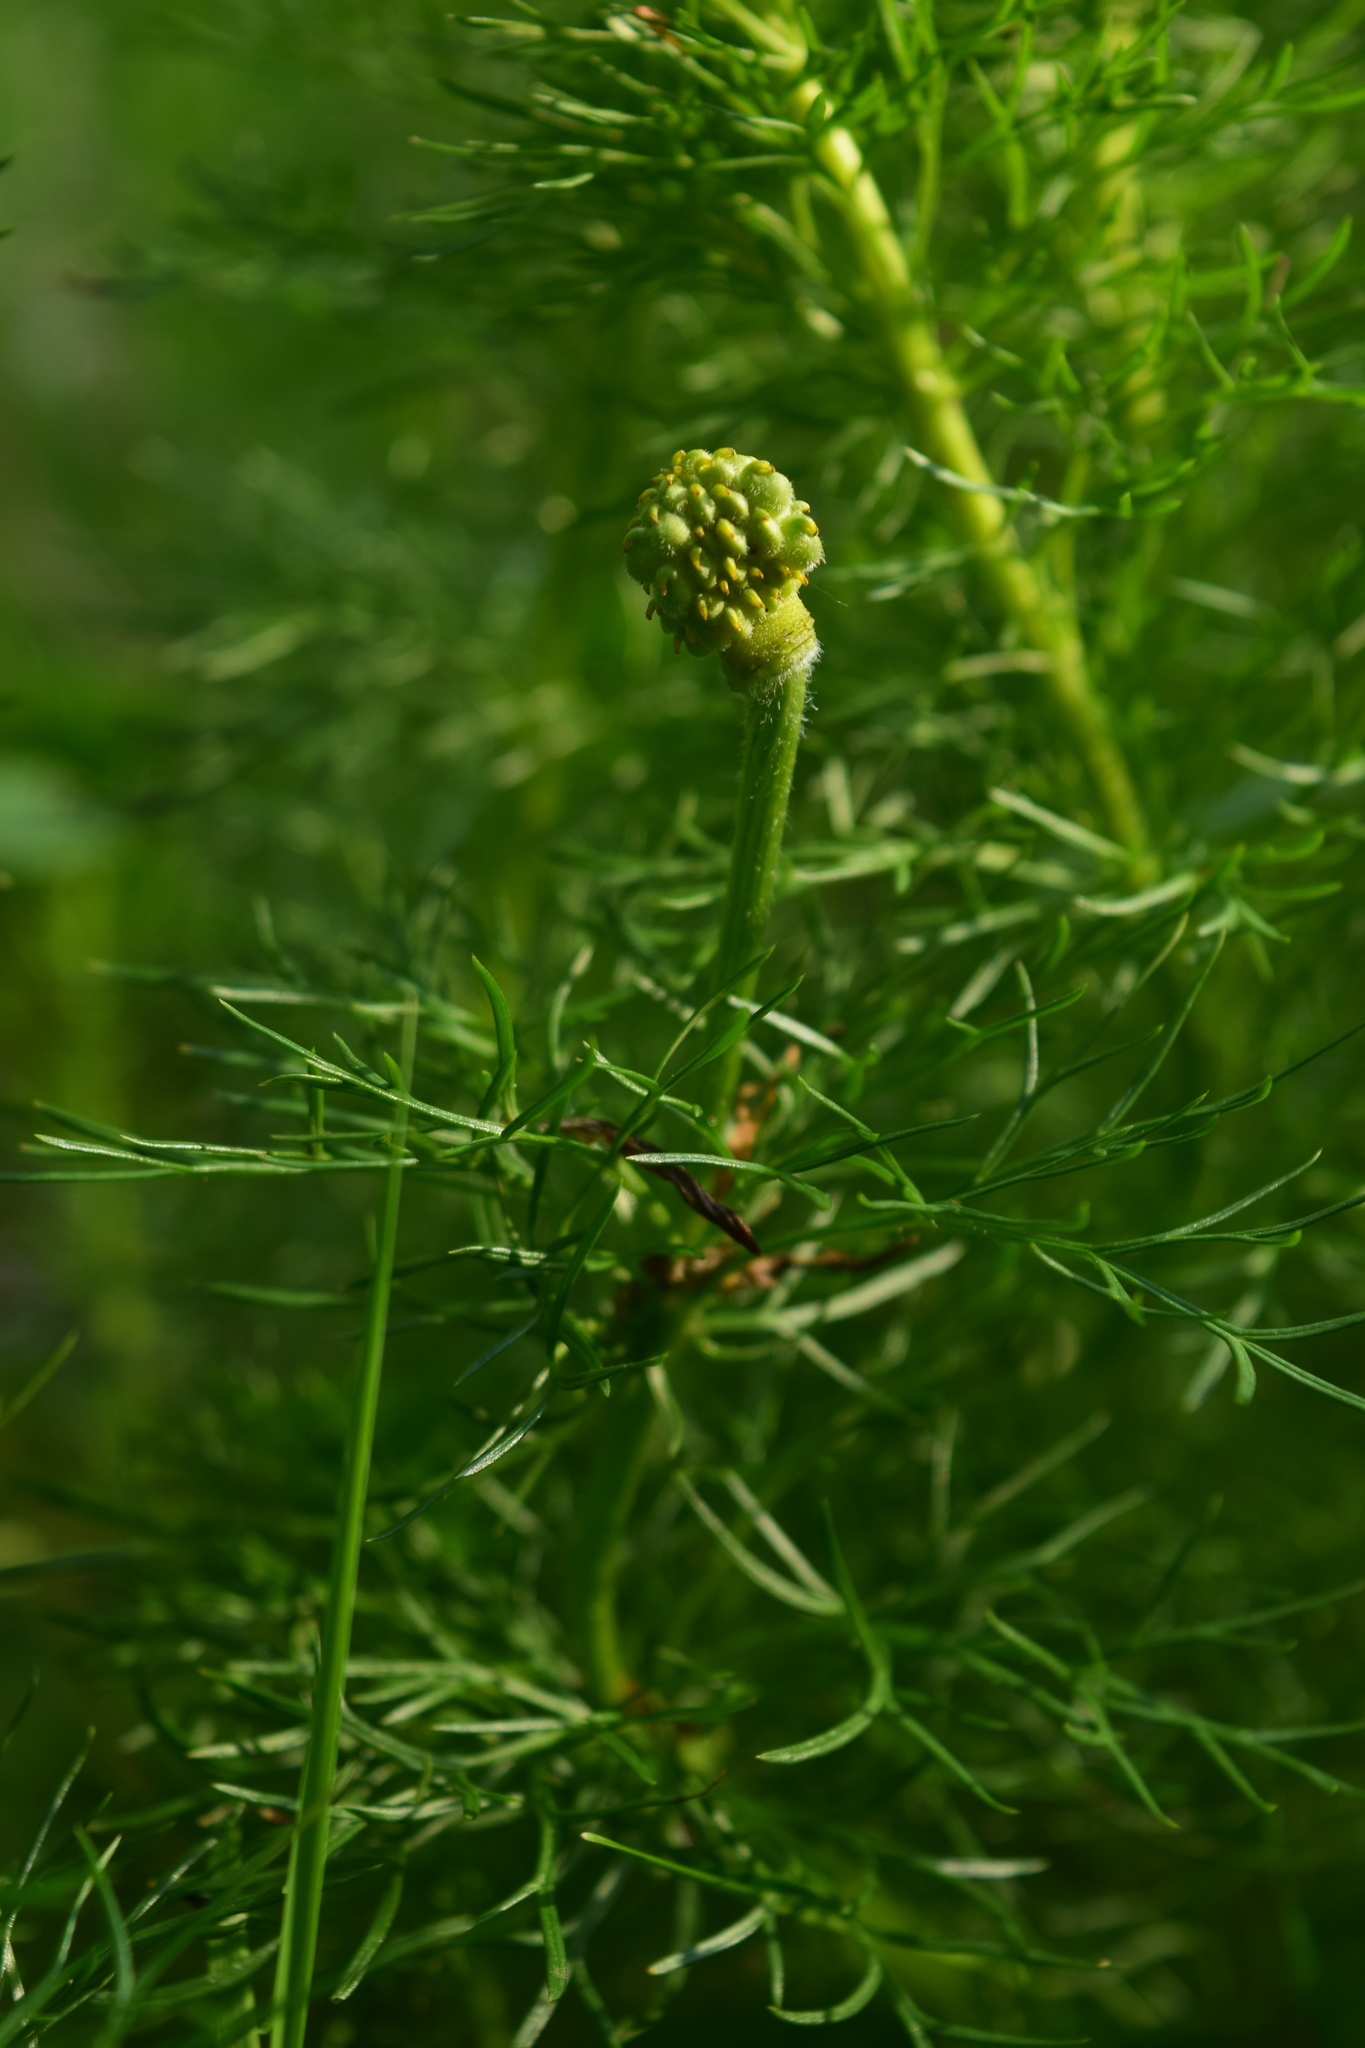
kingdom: Plantae
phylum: Tracheophyta
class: Magnoliopsida
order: Ranunculales
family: Ranunculaceae
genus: Adonis
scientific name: Adonis vernalis
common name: Yellow pheasants-eye
